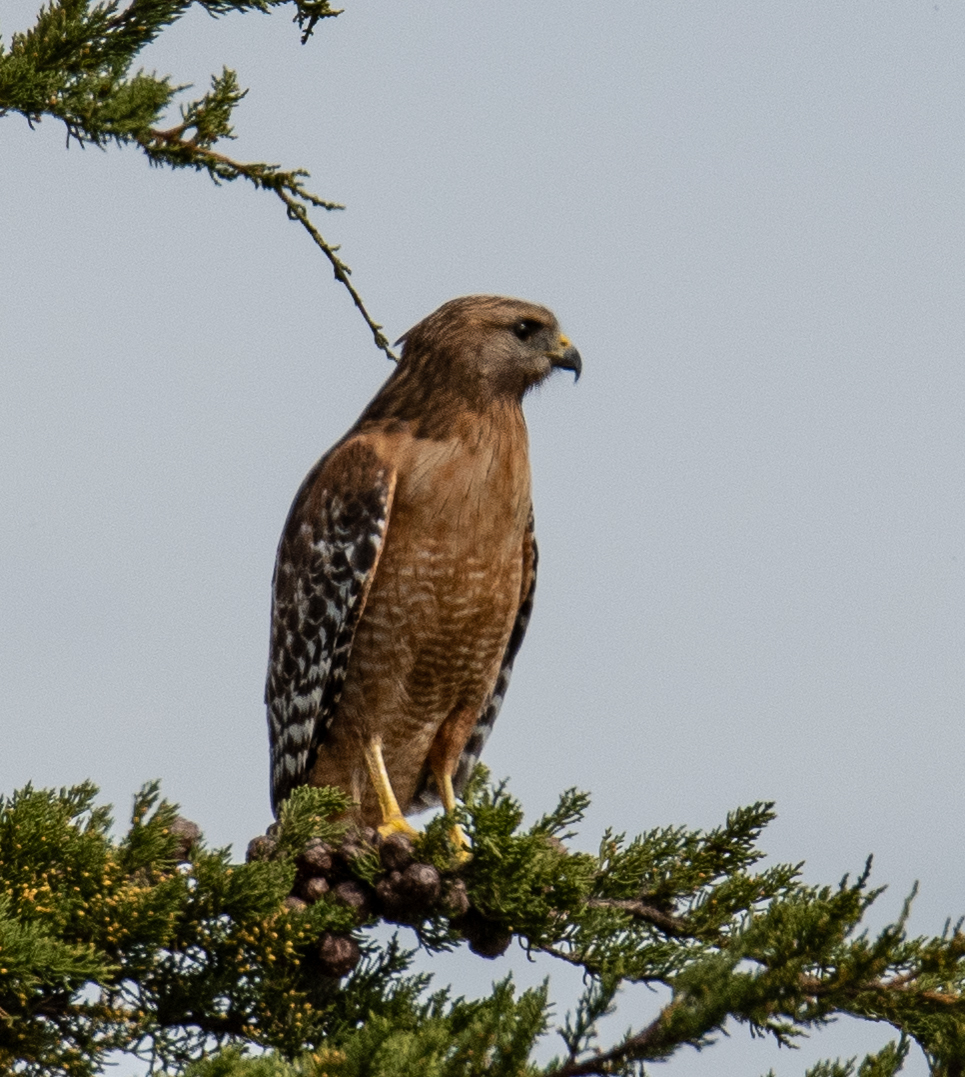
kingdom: Animalia
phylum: Chordata
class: Aves
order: Accipitriformes
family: Accipitridae
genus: Buteo
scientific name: Buteo lineatus
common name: Red-shouldered hawk
